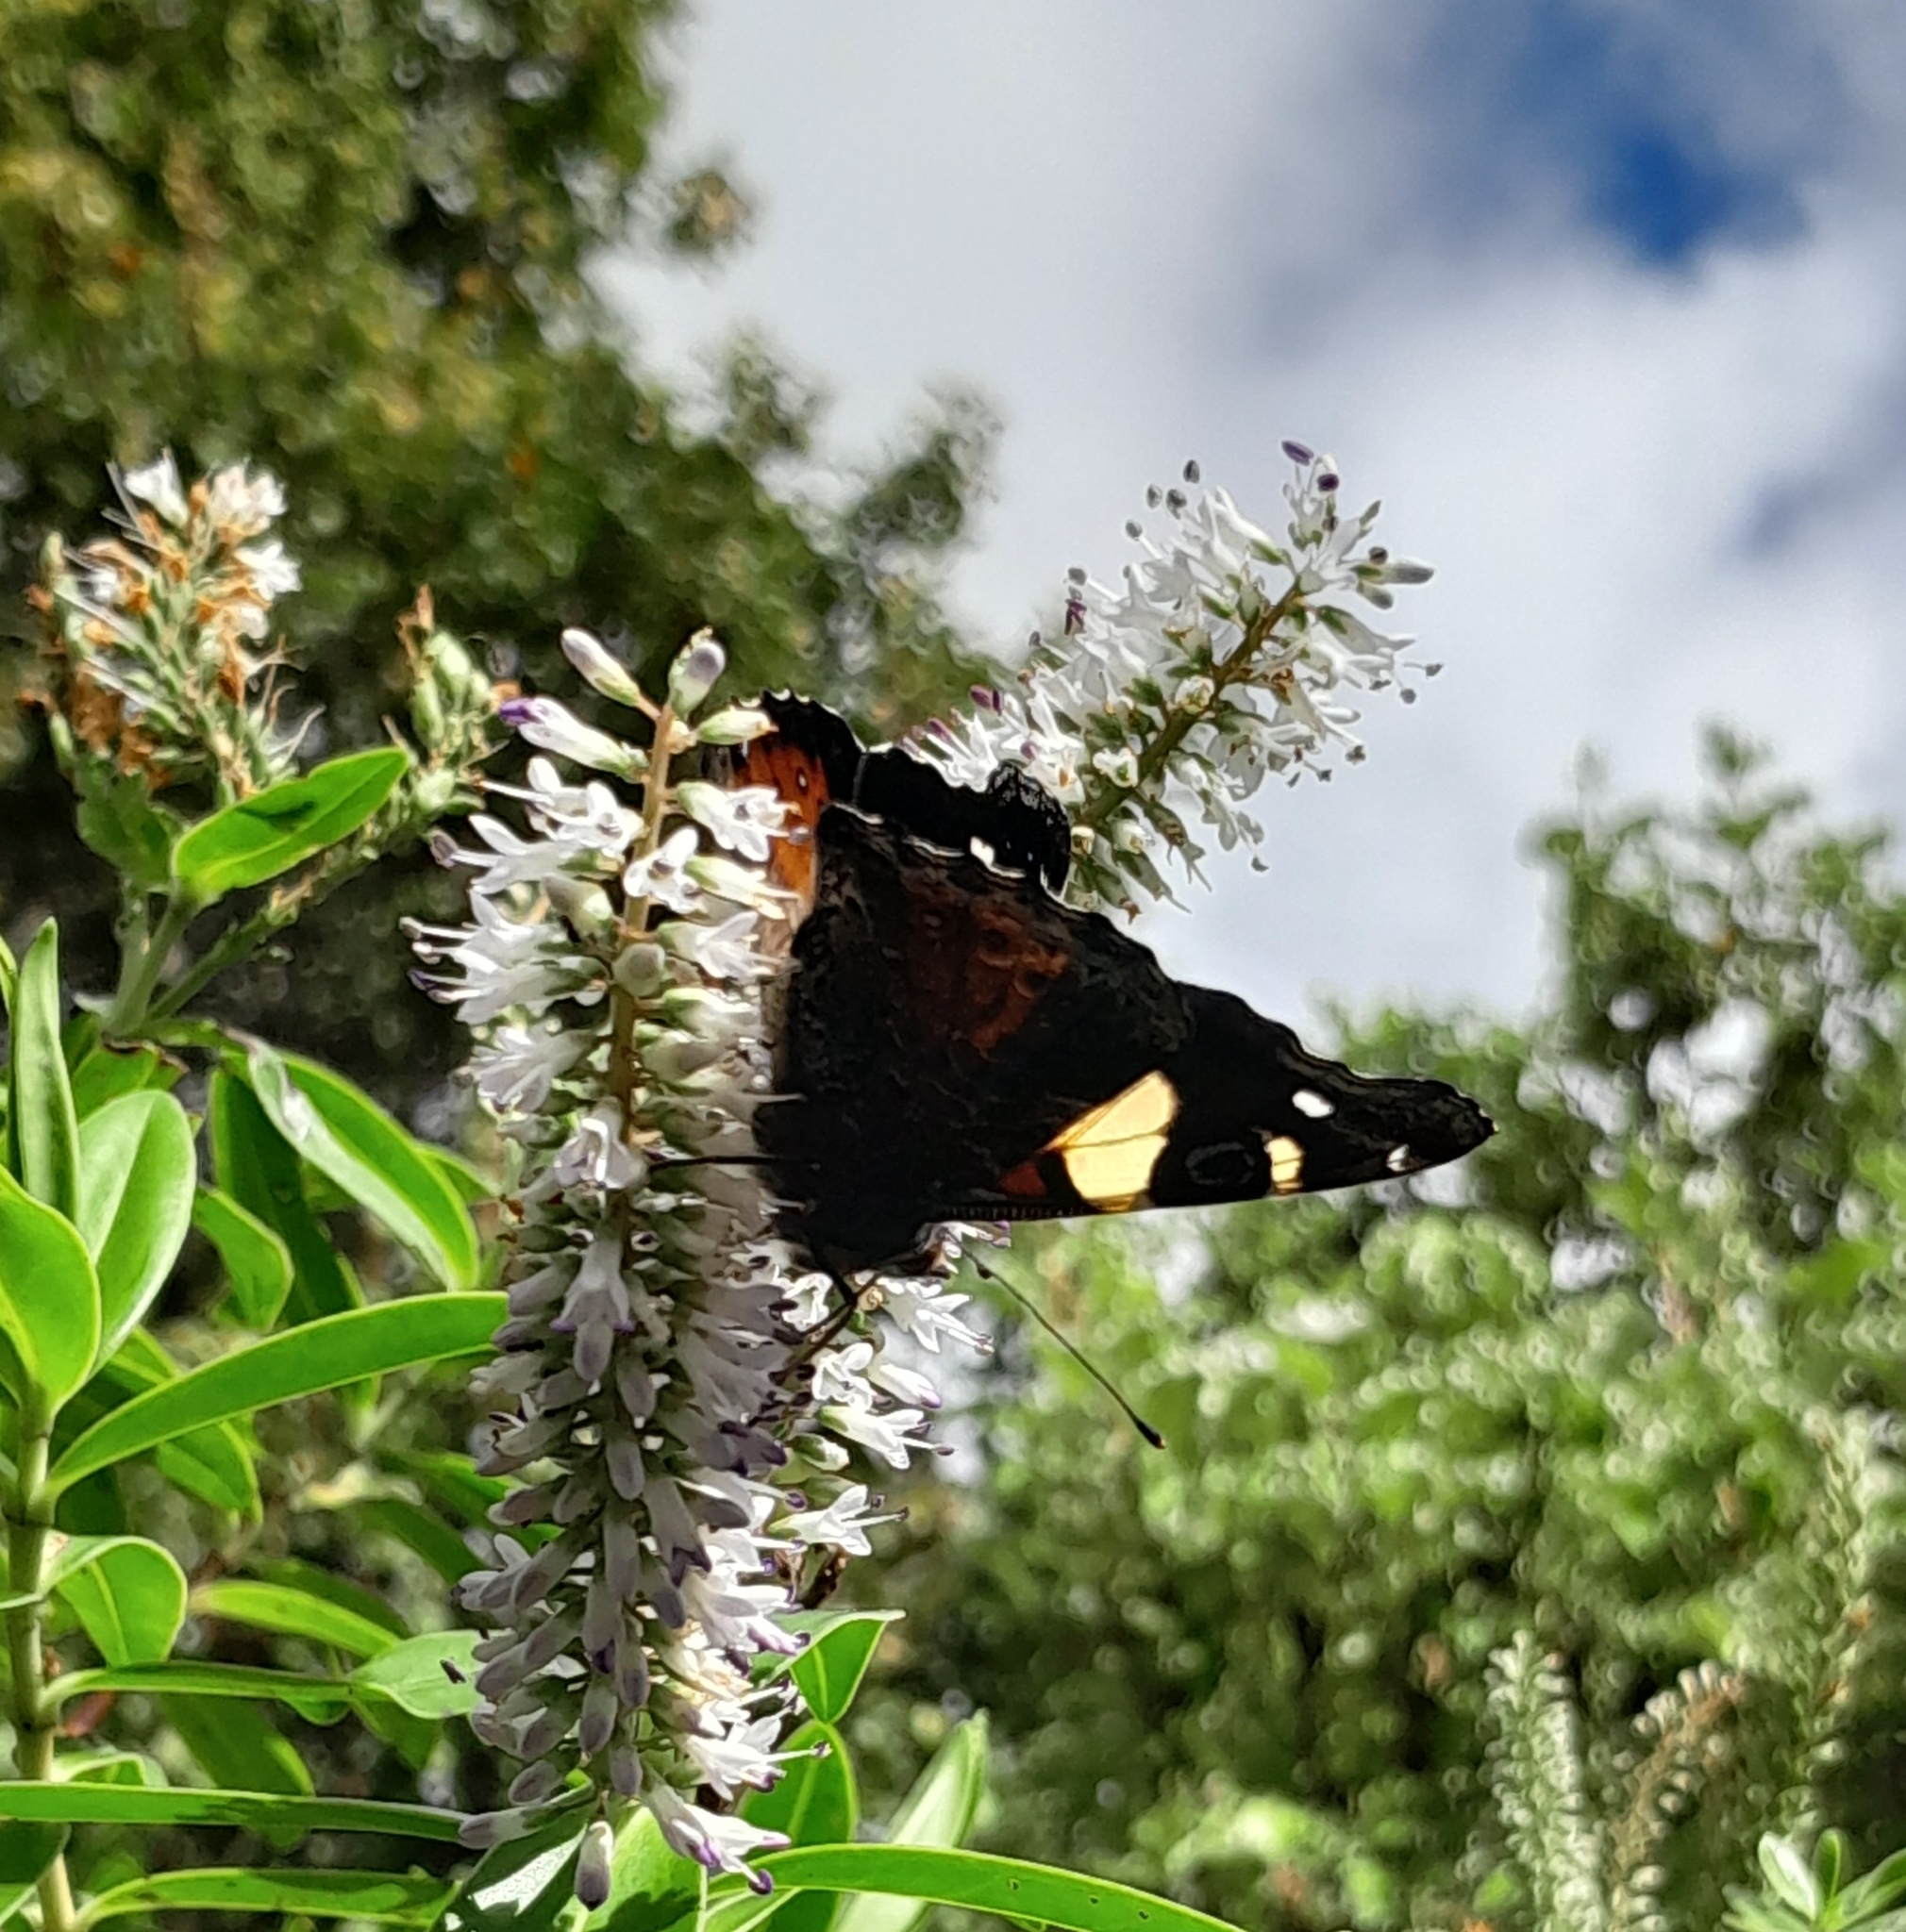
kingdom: Animalia
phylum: Arthropoda
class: Insecta
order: Lepidoptera
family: Nymphalidae
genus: Vanessa
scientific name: Vanessa itea
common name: Yellow admiral
